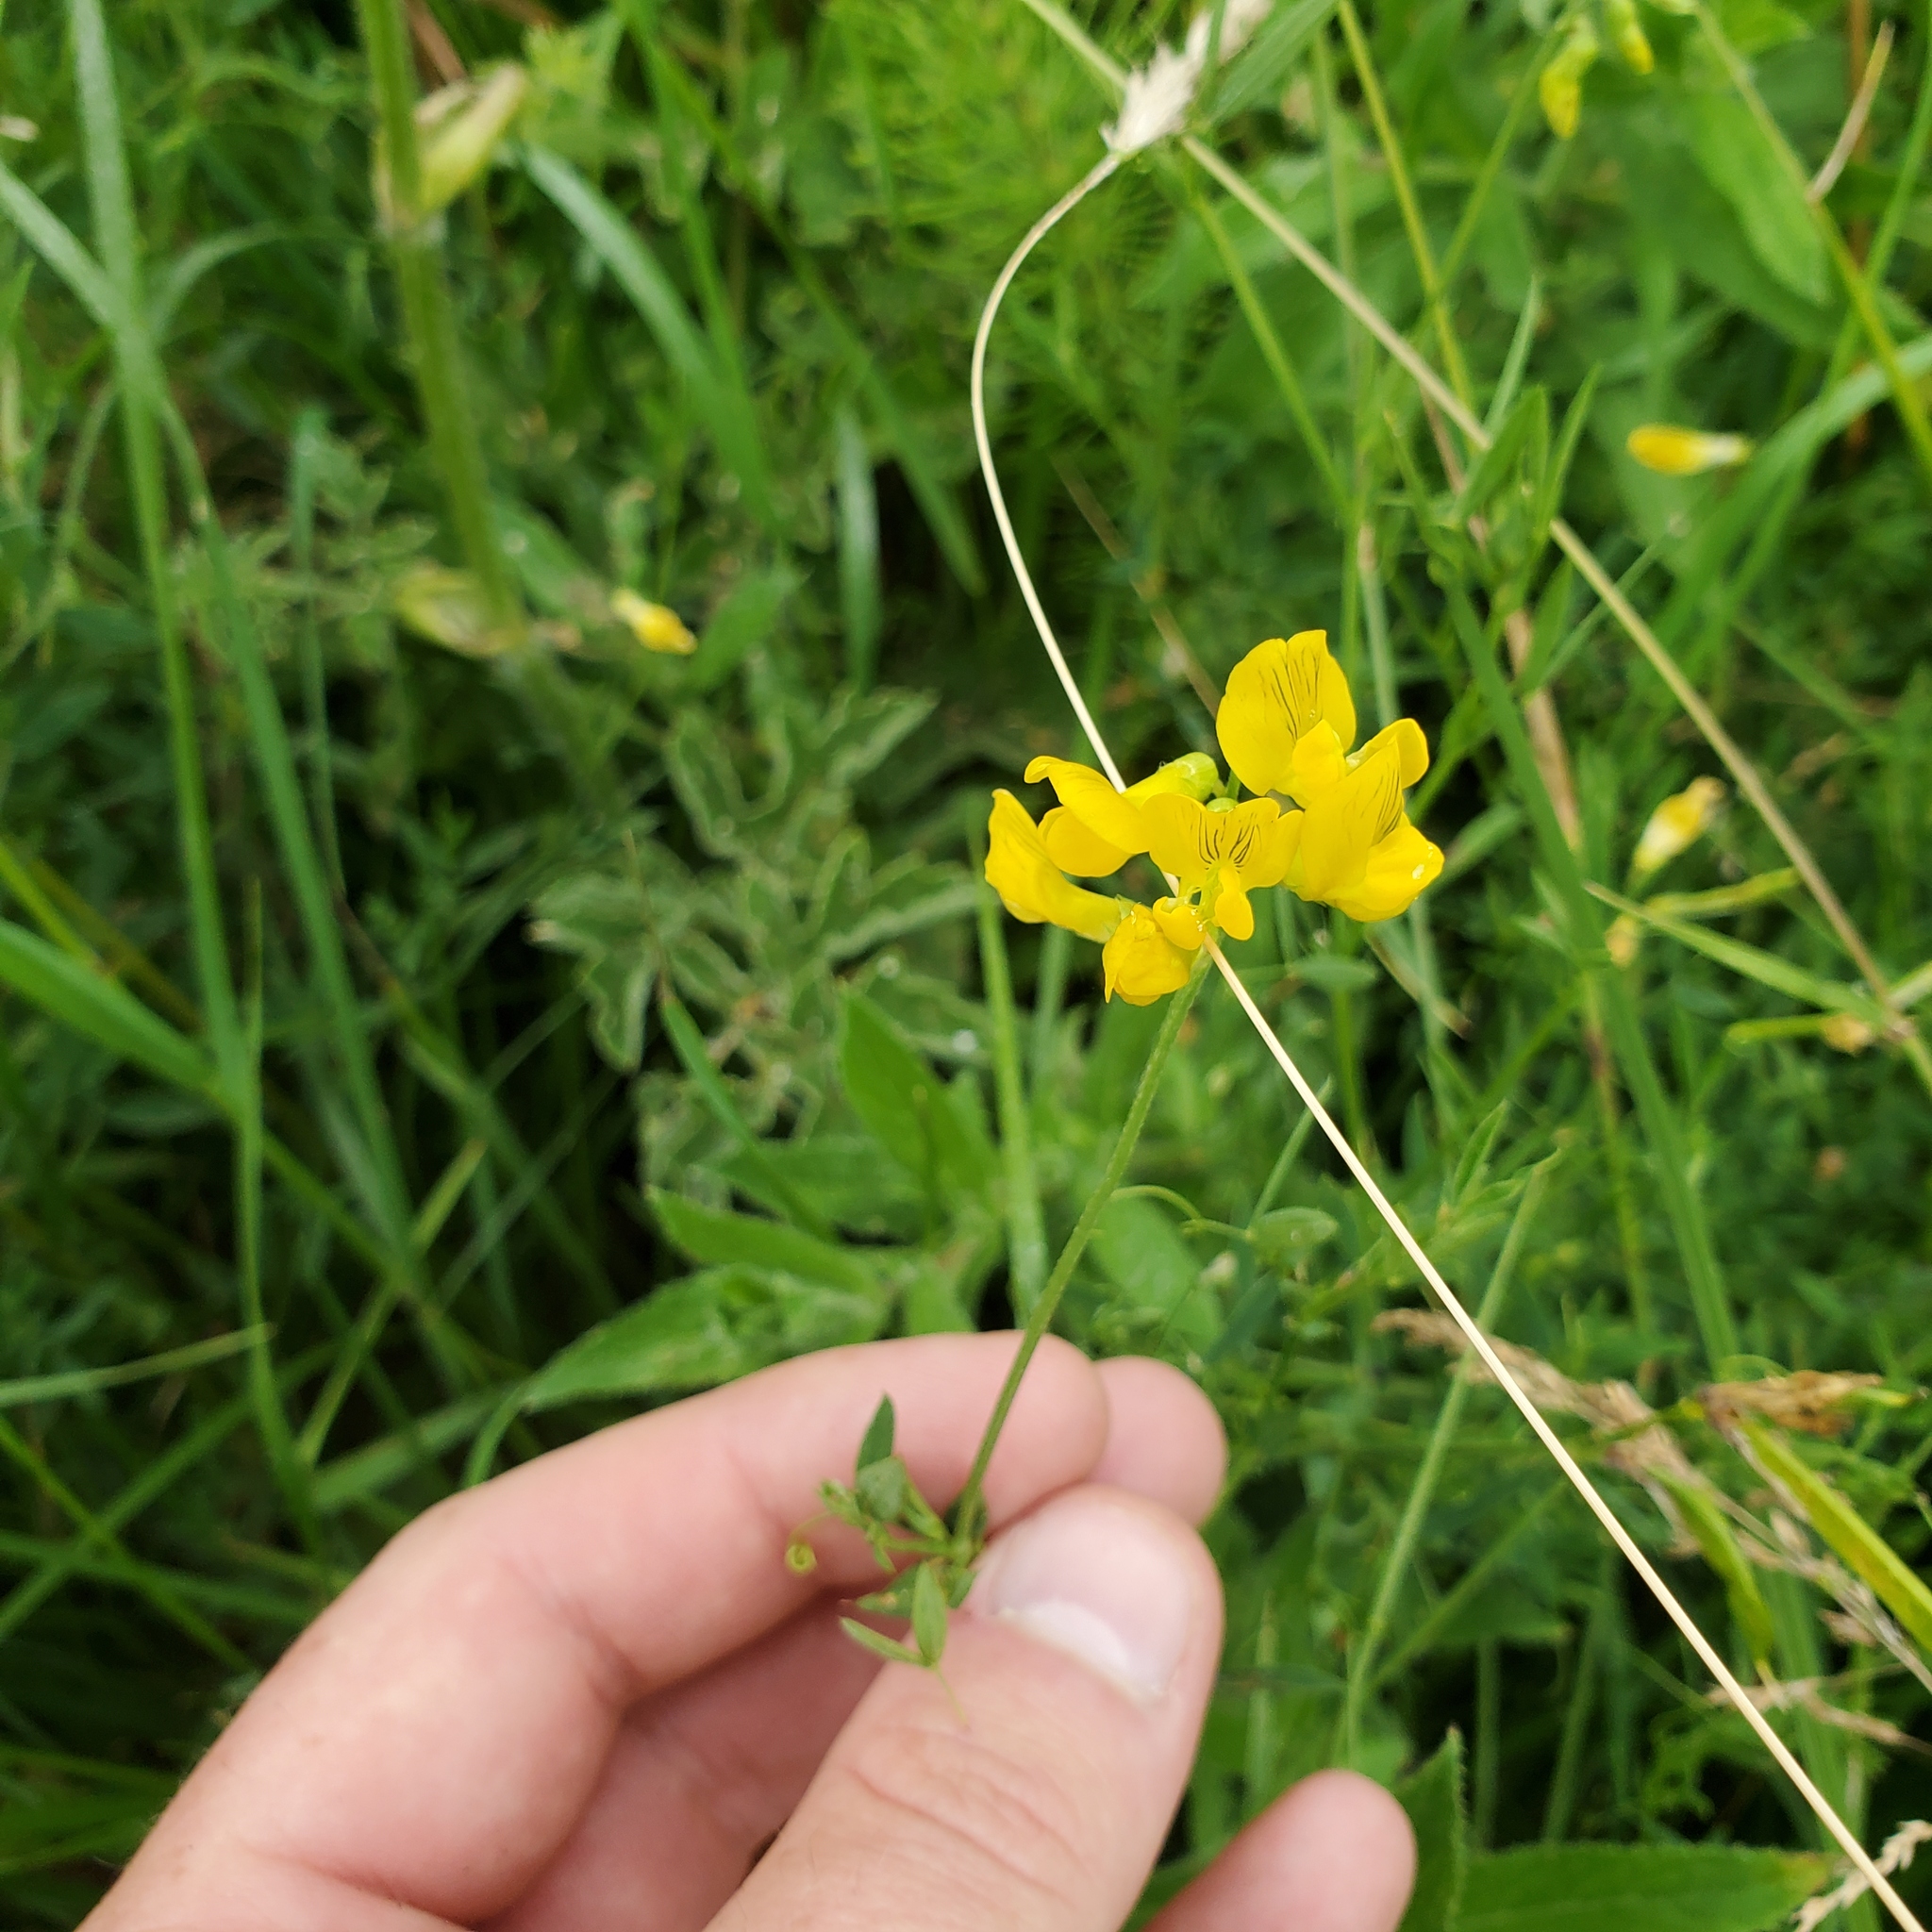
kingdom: Plantae
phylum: Tracheophyta
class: Magnoliopsida
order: Fabales
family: Fabaceae
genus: Lathyrus
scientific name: Lathyrus pratensis
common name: Meadow vetchling
